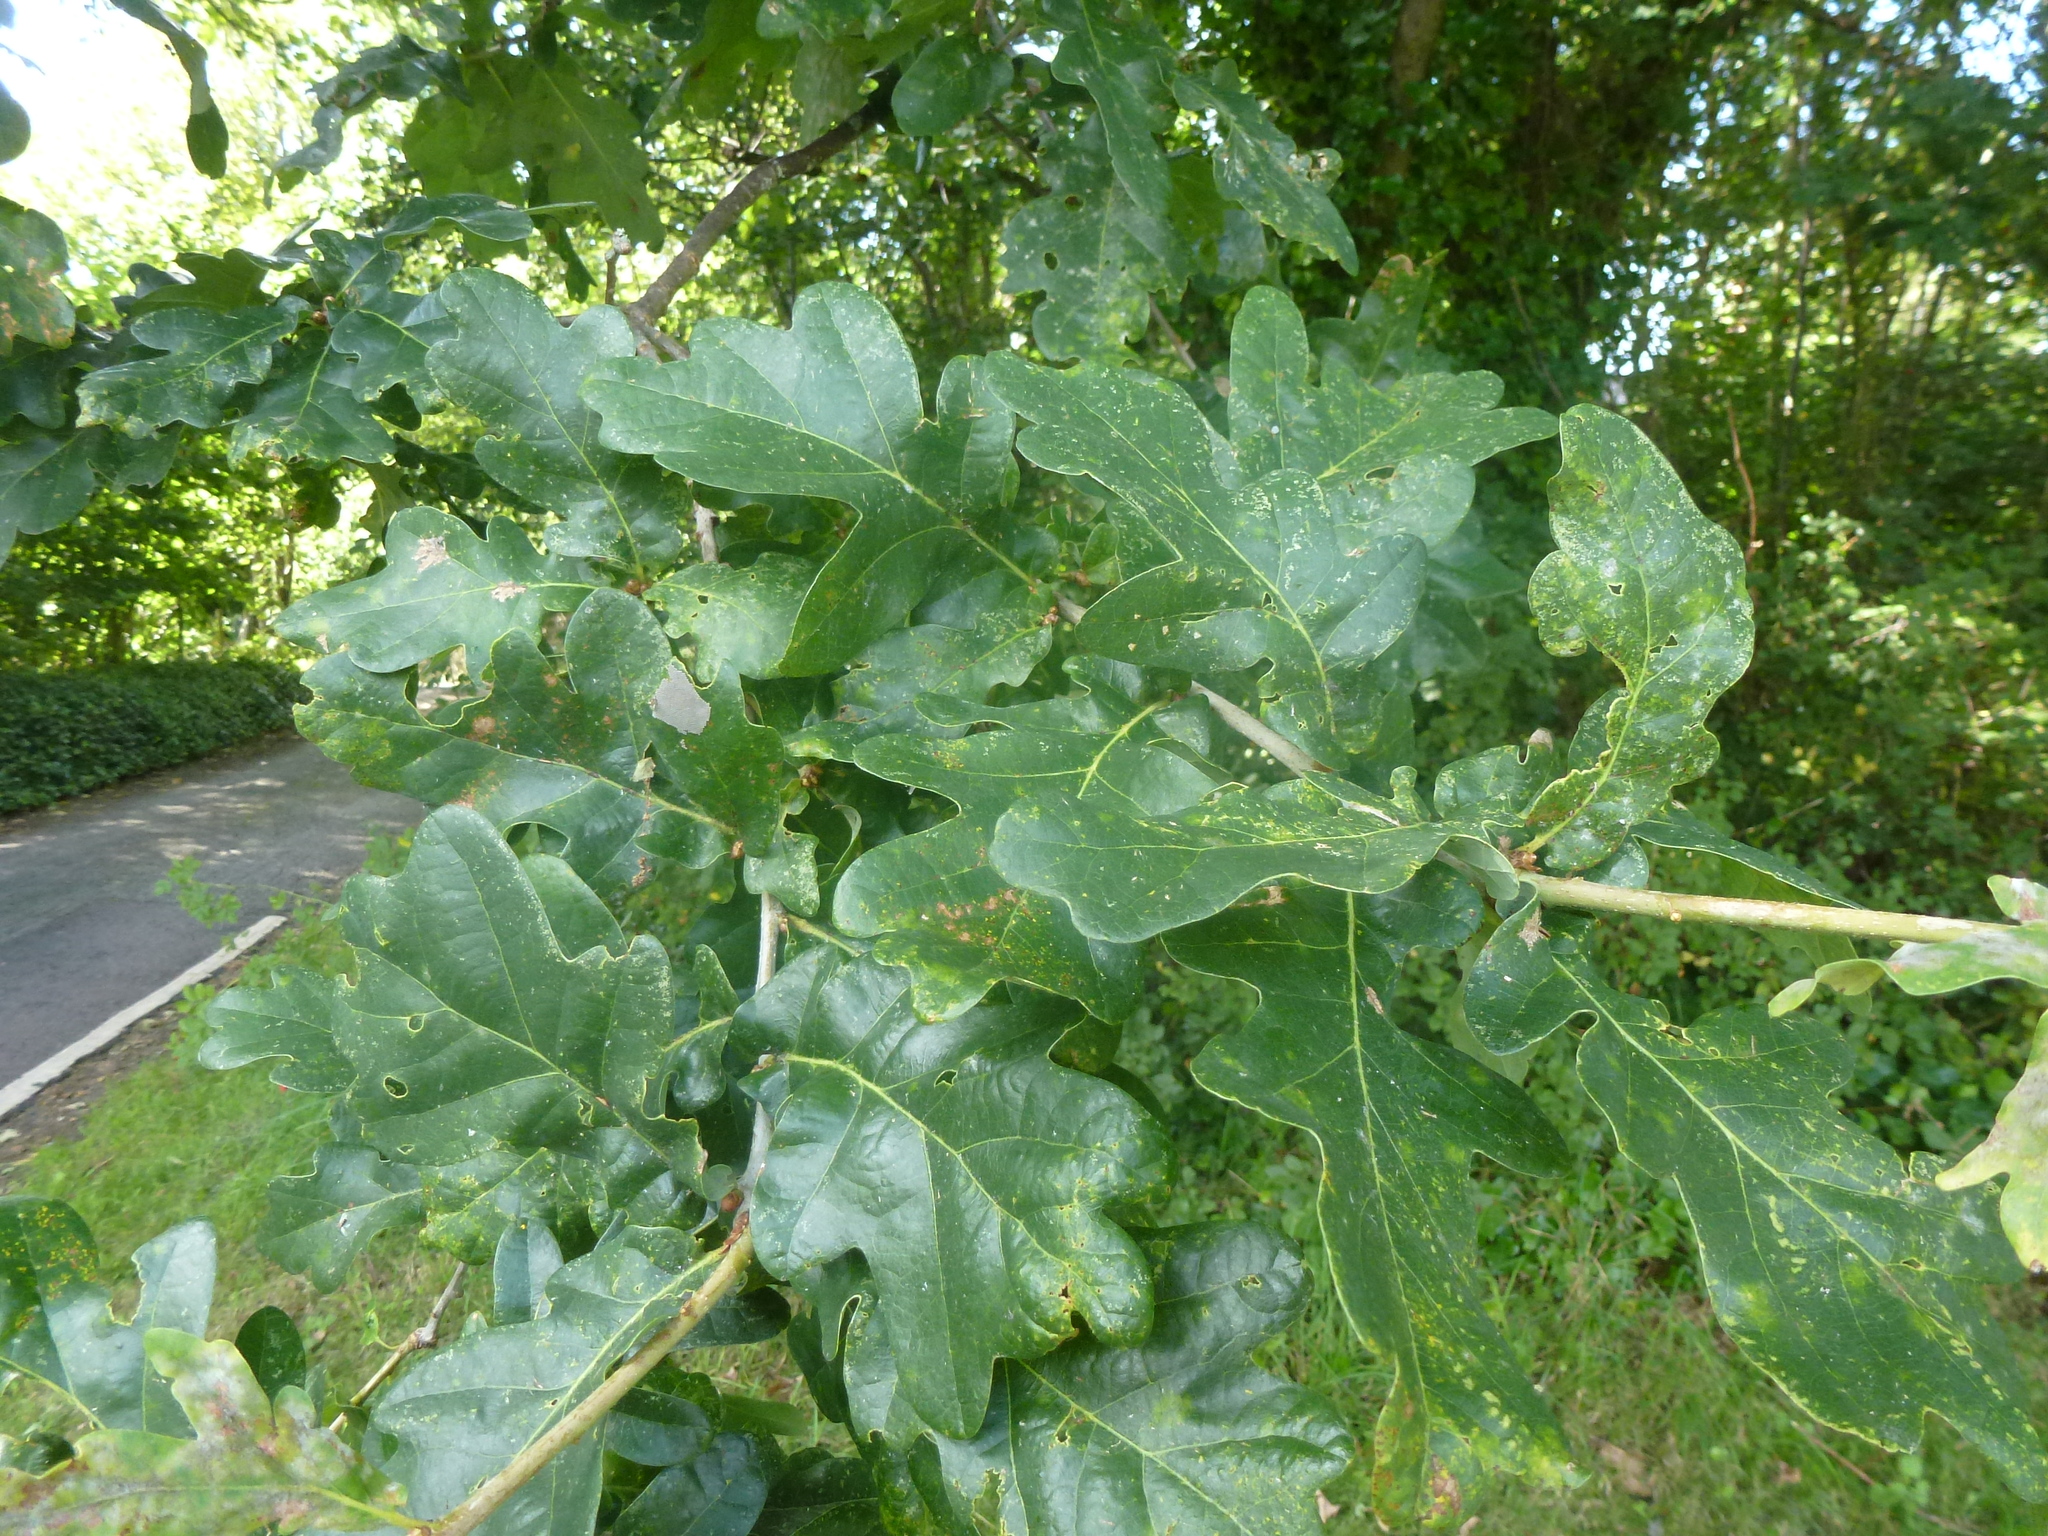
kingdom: Plantae
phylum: Tracheophyta
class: Magnoliopsida
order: Fagales
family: Fagaceae
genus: Quercus
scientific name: Quercus robur
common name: Pedunculate oak
